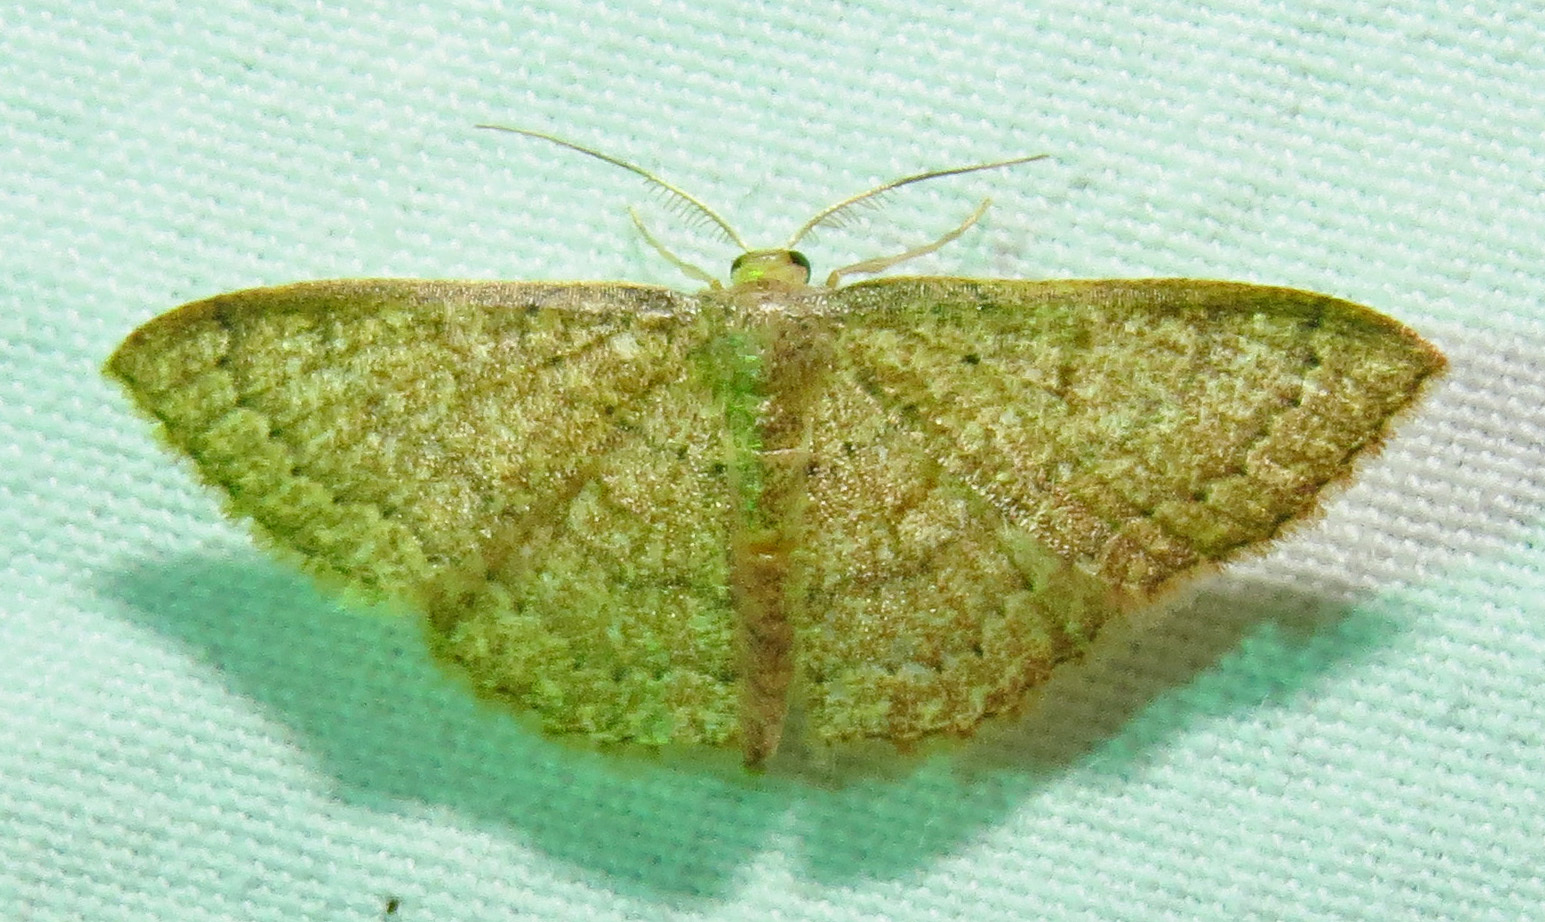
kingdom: Animalia
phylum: Arthropoda
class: Insecta
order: Lepidoptera
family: Geometridae
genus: Pleuroprucha
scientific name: Pleuroprucha insulsaria
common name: Common tan wave
